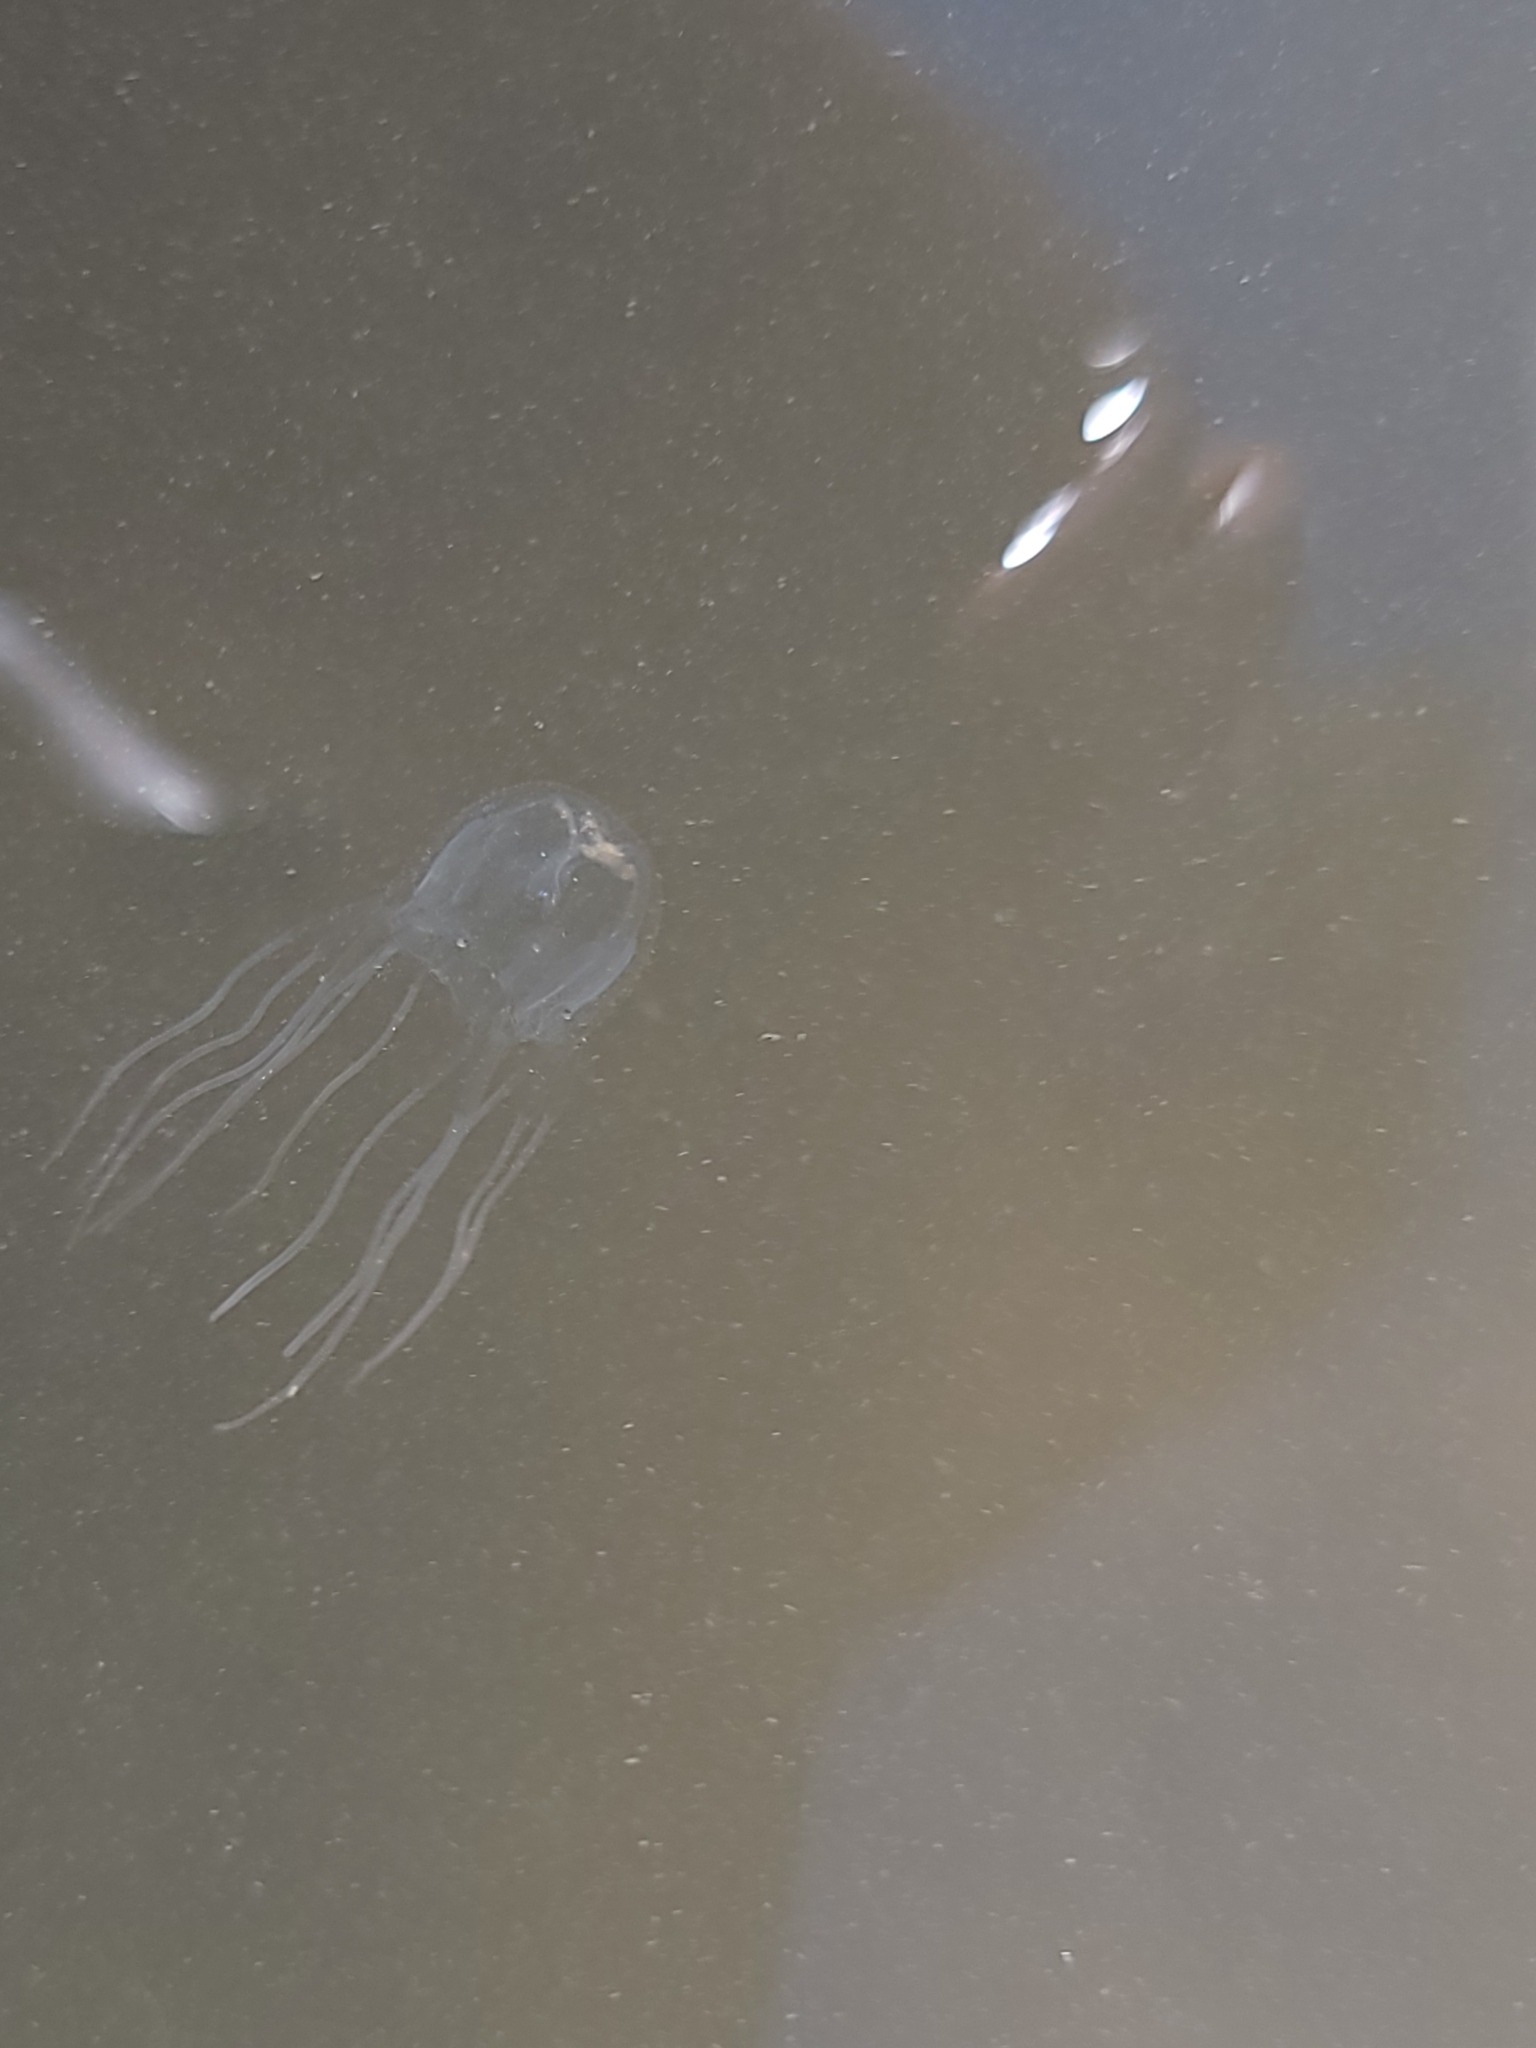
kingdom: Animalia
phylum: Cnidaria
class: Cubozoa
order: Carybdeida
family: Tripedaliidae
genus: Tripedalia
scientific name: Tripedalia cystophora
